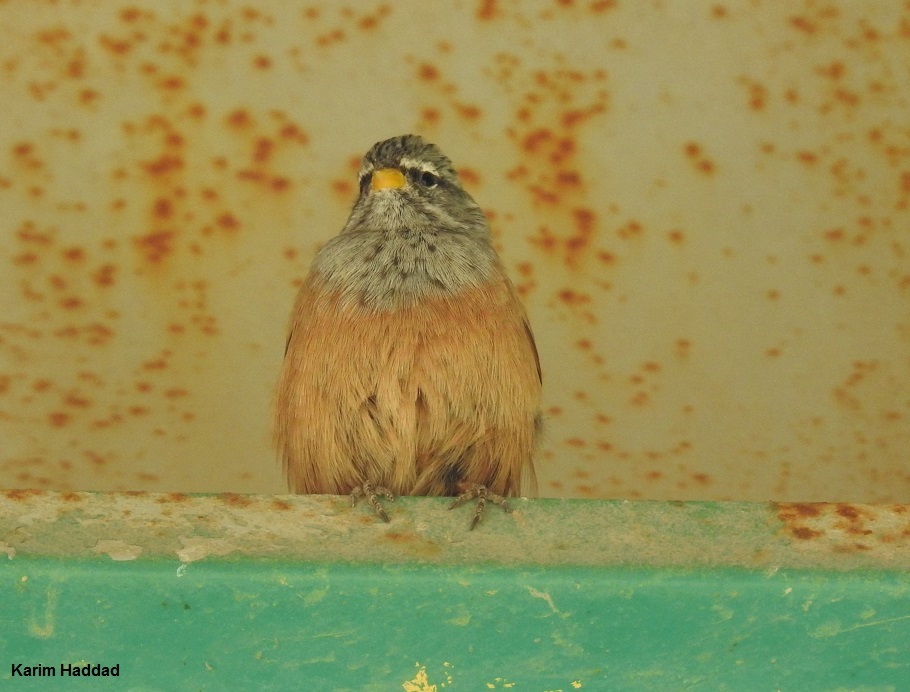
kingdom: Animalia
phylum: Chordata
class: Aves
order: Passeriformes
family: Emberizidae
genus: Emberiza
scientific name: Emberiza sahari
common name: House bunting
